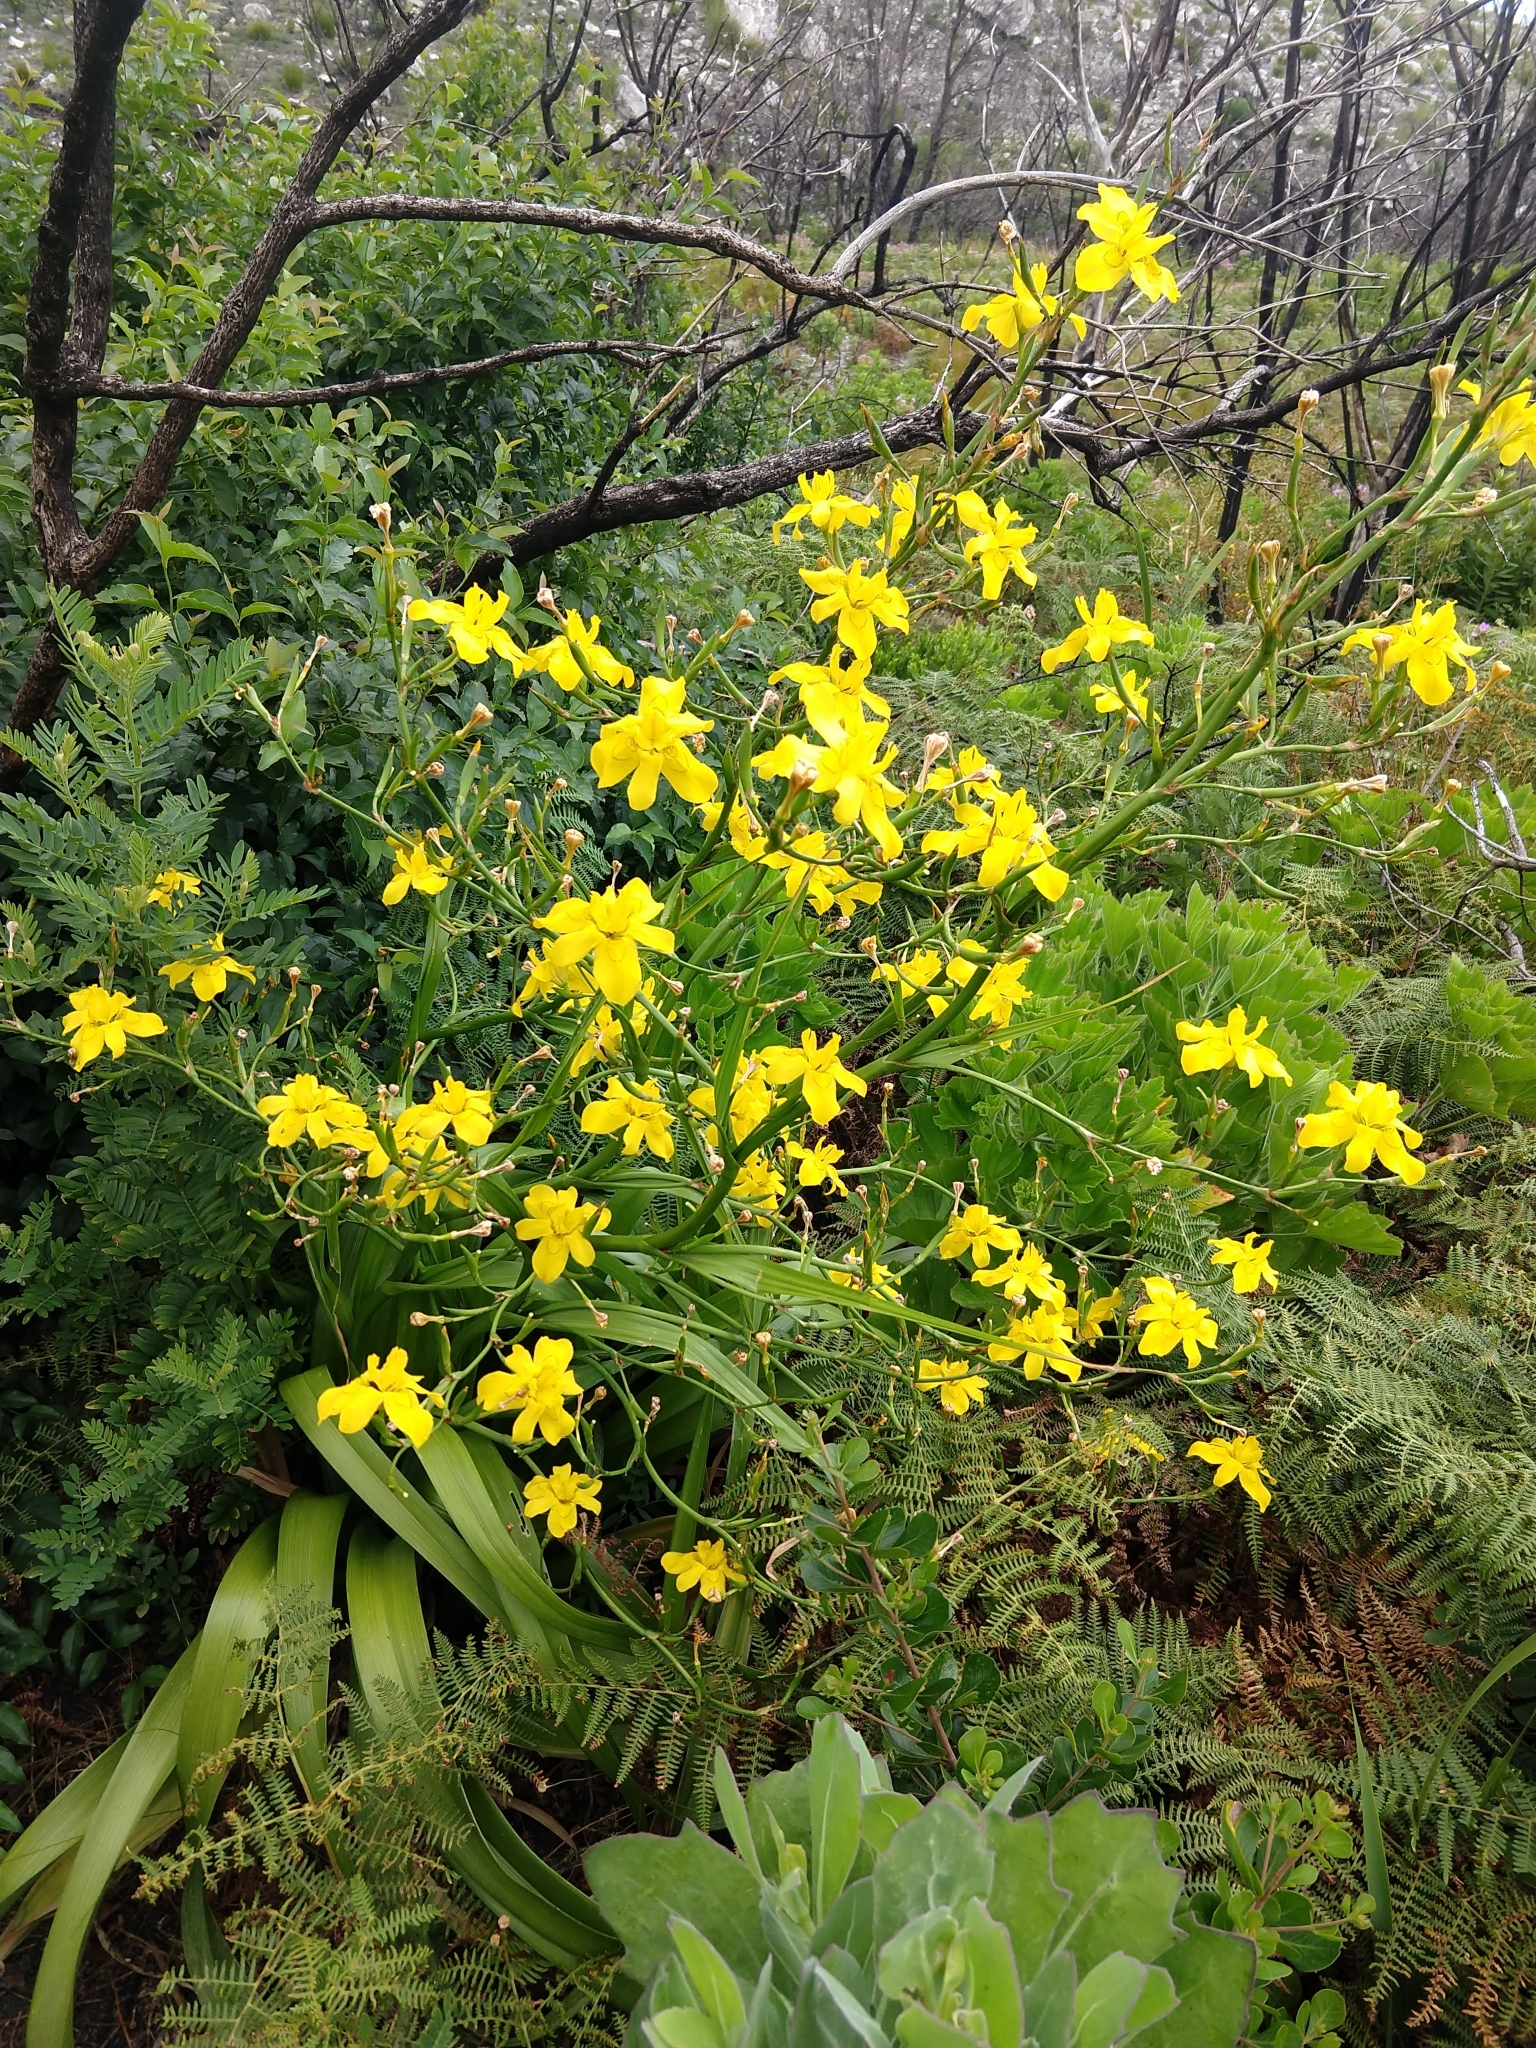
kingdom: Plantae
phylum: Tracheophyta
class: Liliopsida
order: Asparagales
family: Iridaceae
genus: Moraea
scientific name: Moraea ramosissima
